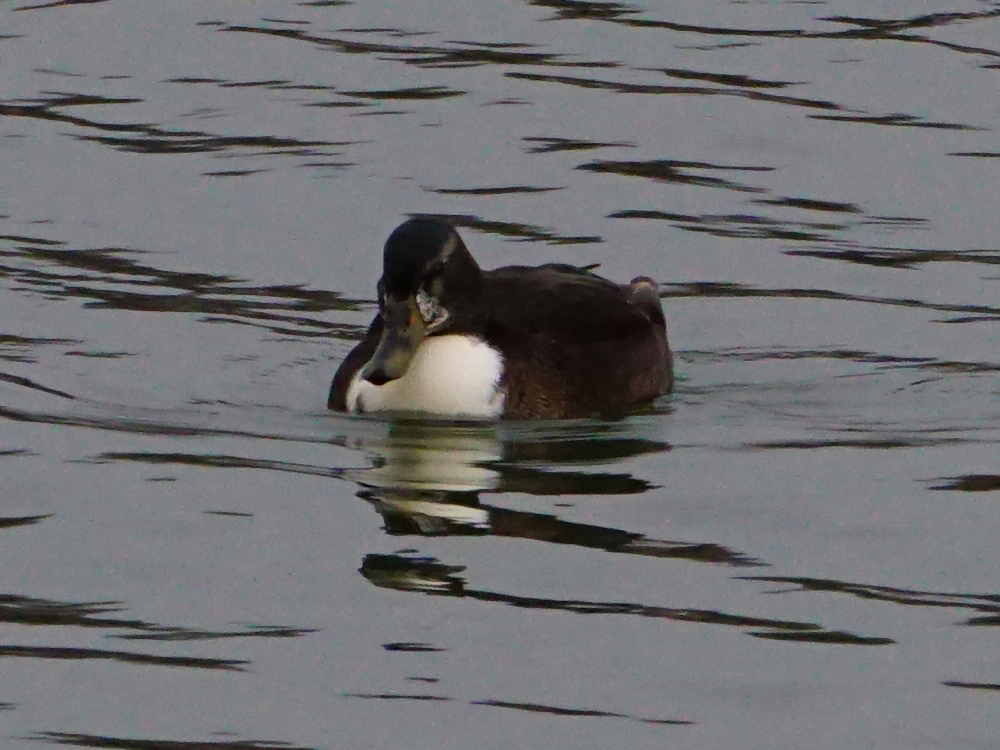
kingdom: Animalia
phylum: Chordata
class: Aves
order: Anseriformes
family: Anatidae
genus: Anas
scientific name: Anas platyrhynchos
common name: Mallard
